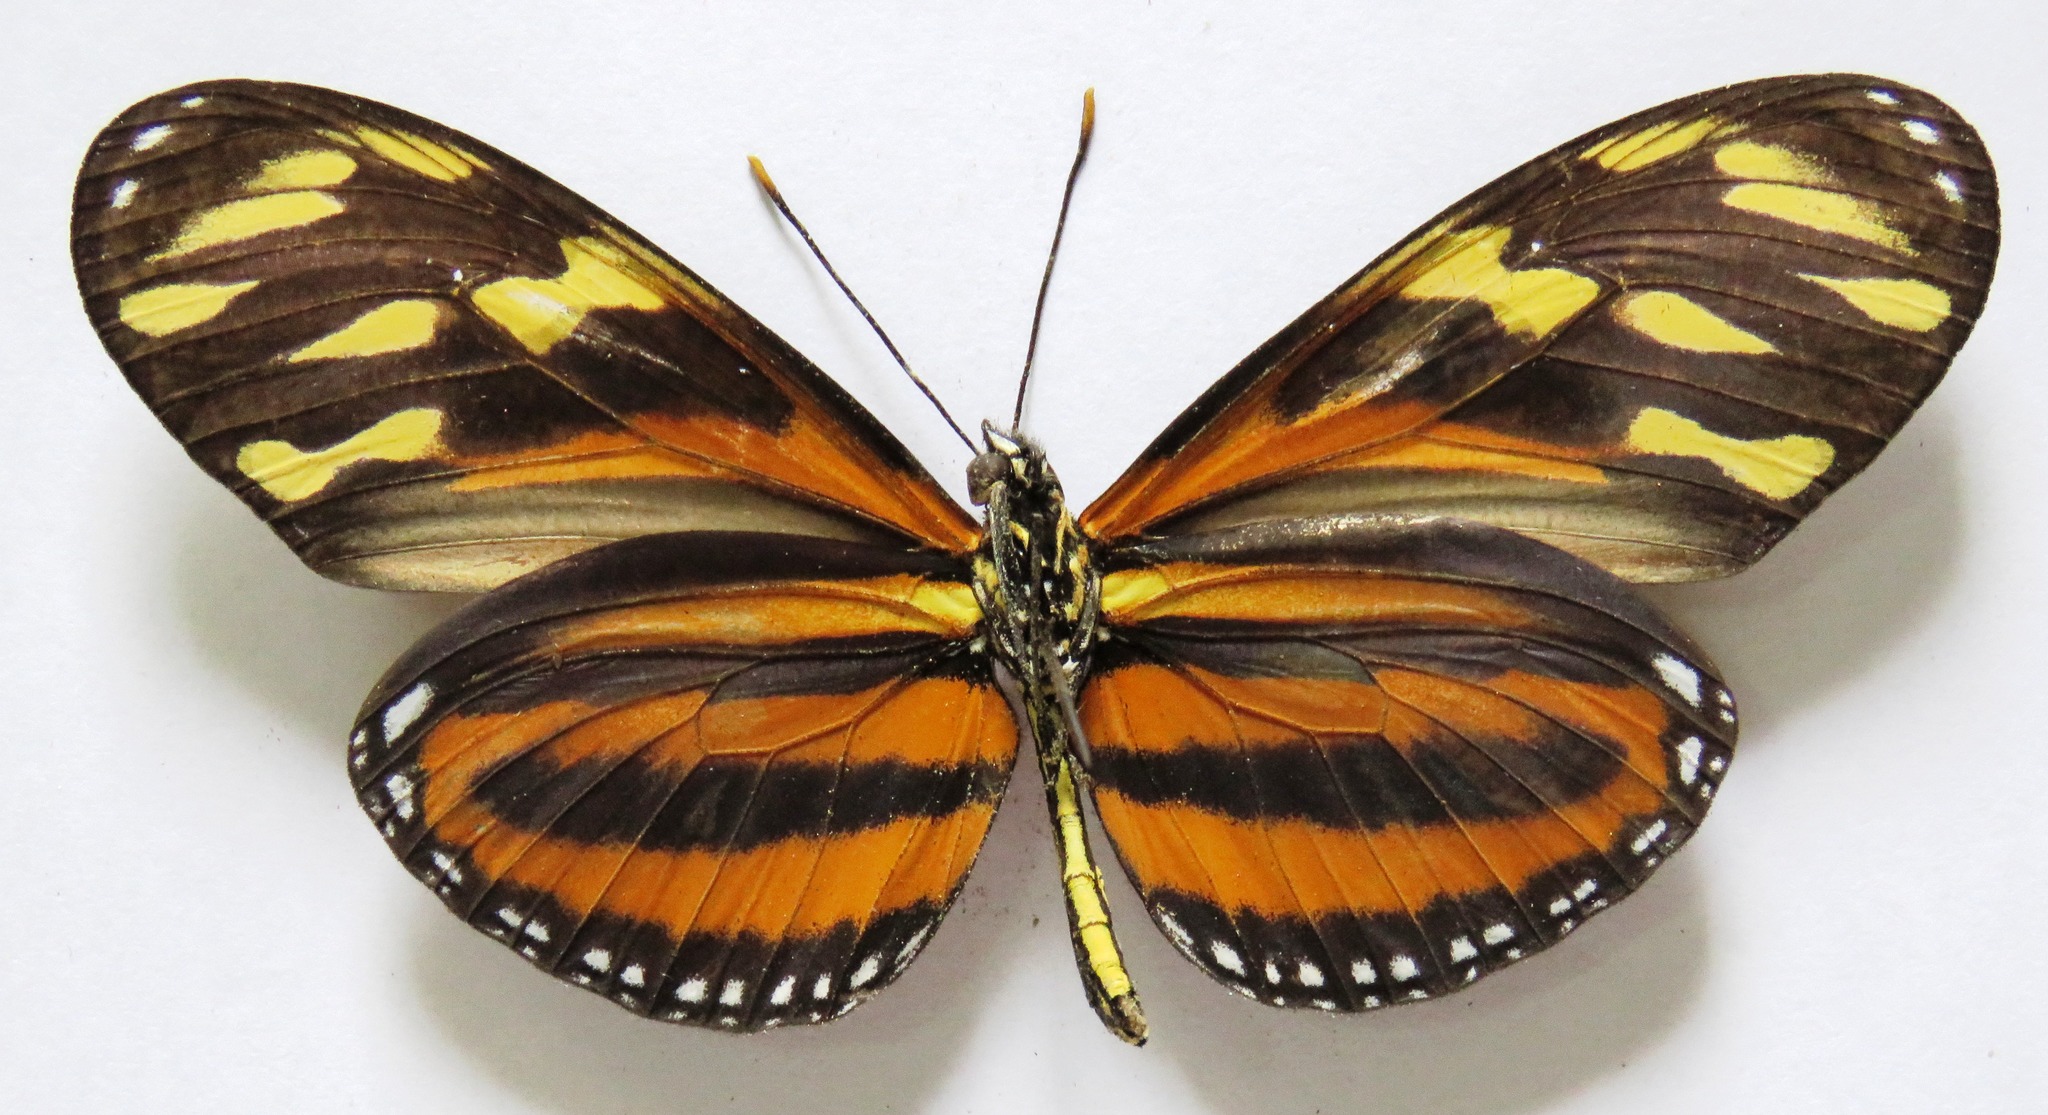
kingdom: Animalia
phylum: Arthropoda
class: Insecta
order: Lepidoptera
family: Nymphalidae
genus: Lycorea
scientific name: Lycorea eva
